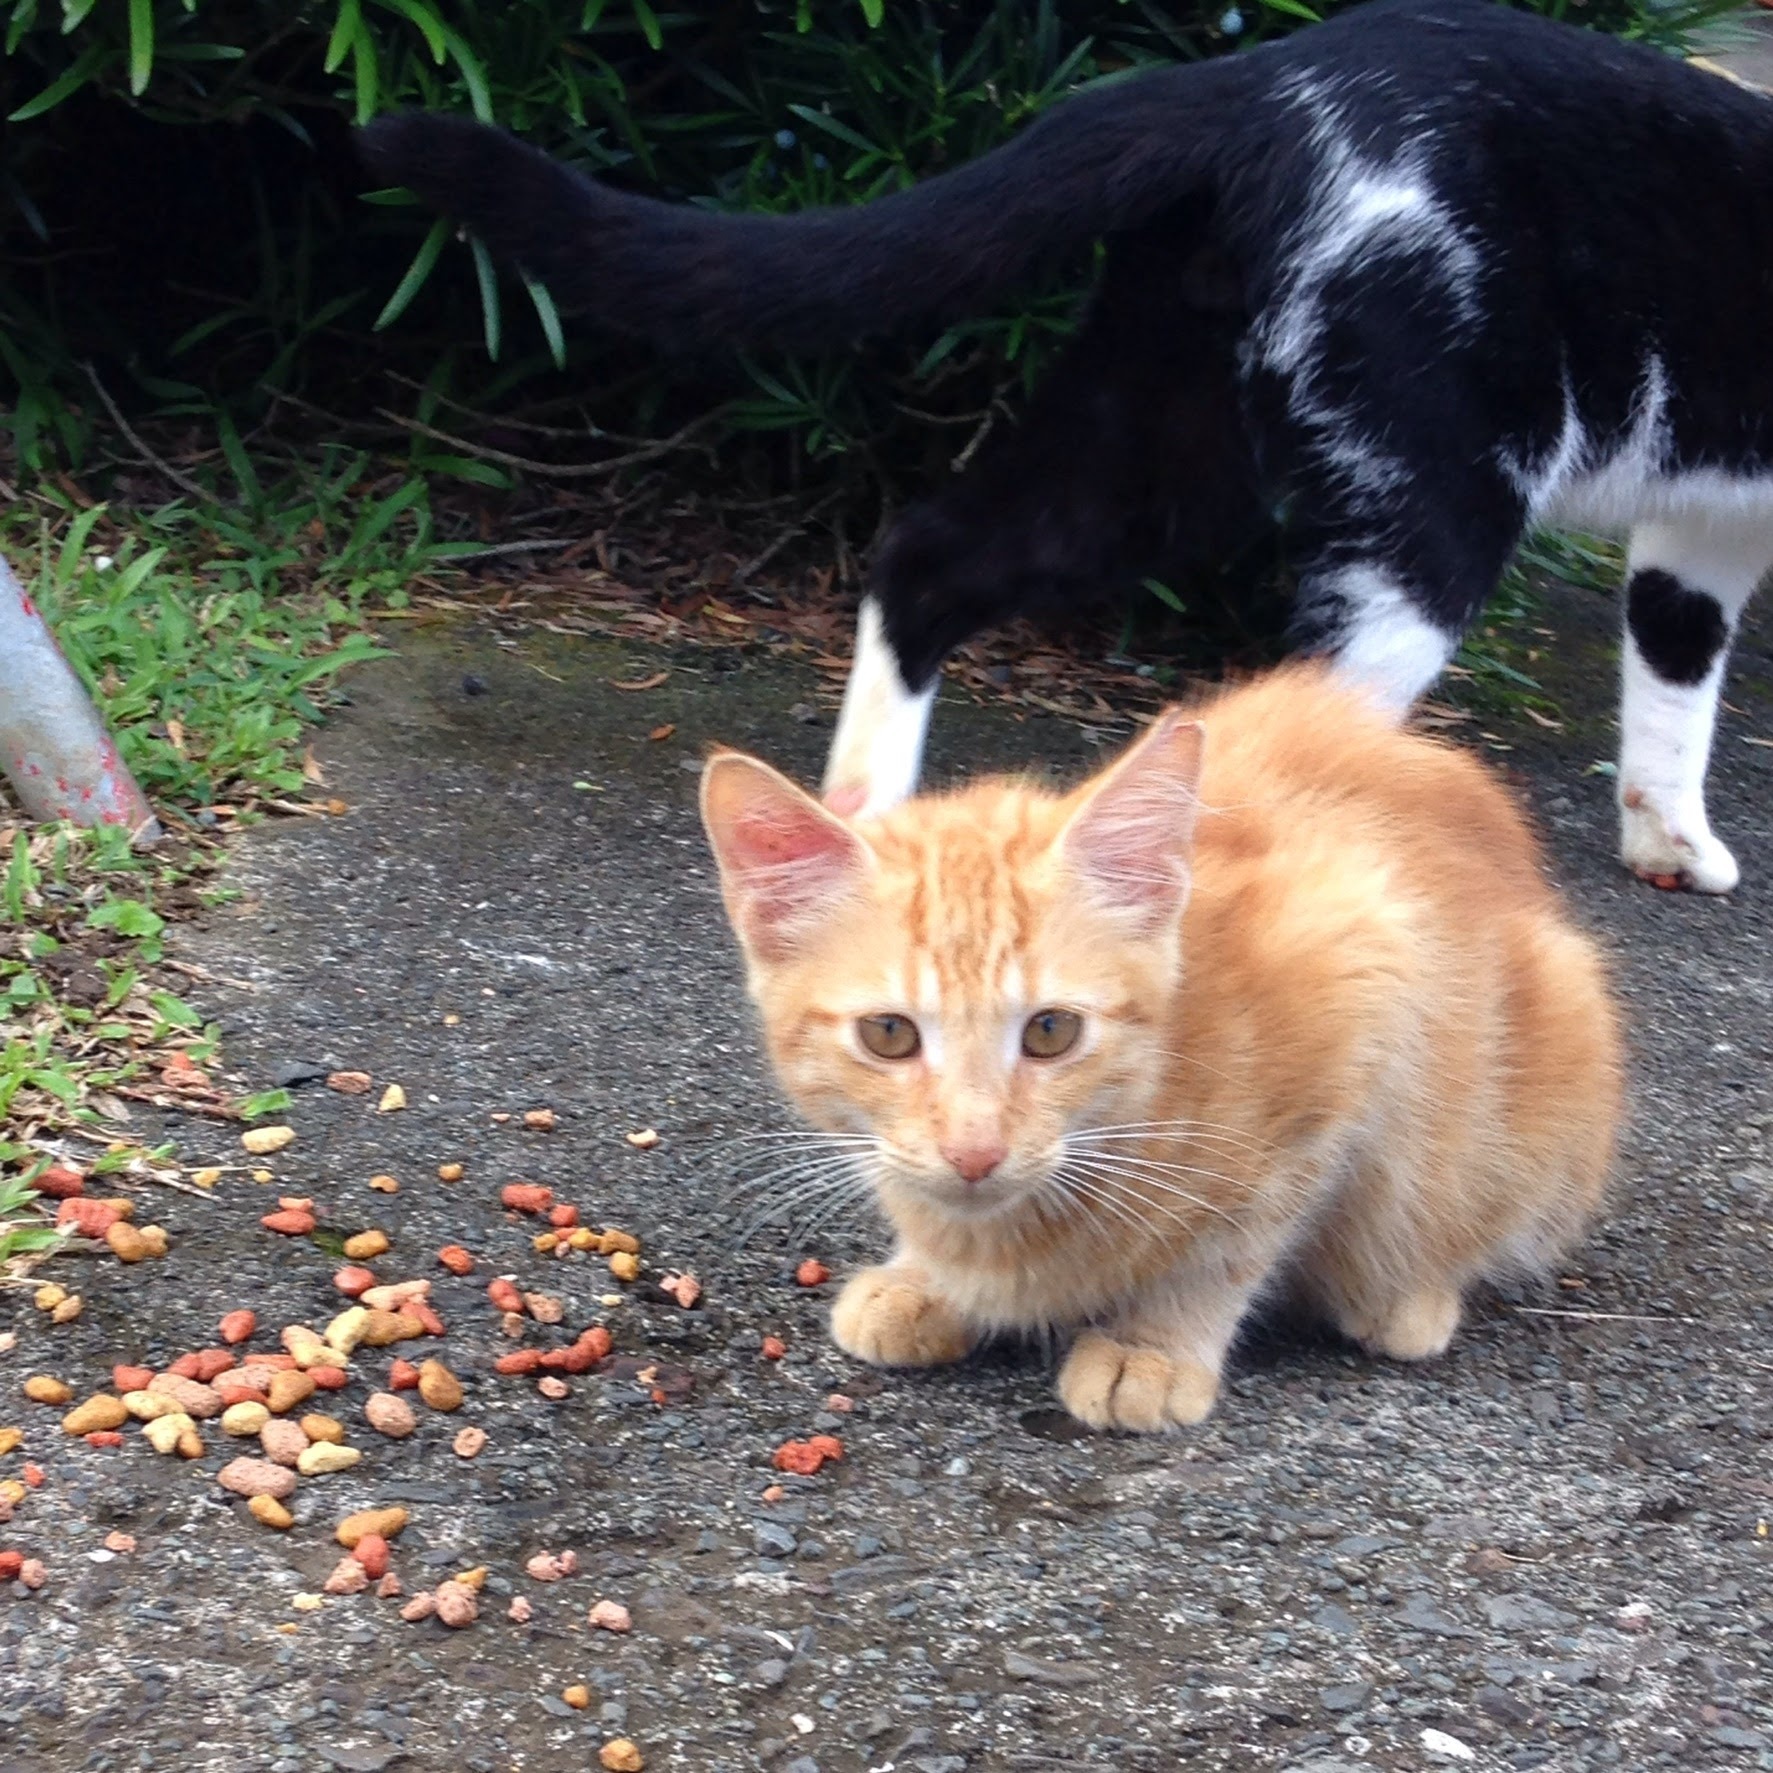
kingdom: Animalia
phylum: Chordata
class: Mammalia
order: Carnivora
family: Felidae
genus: Felis
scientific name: Felis catus
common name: Domestic cat
